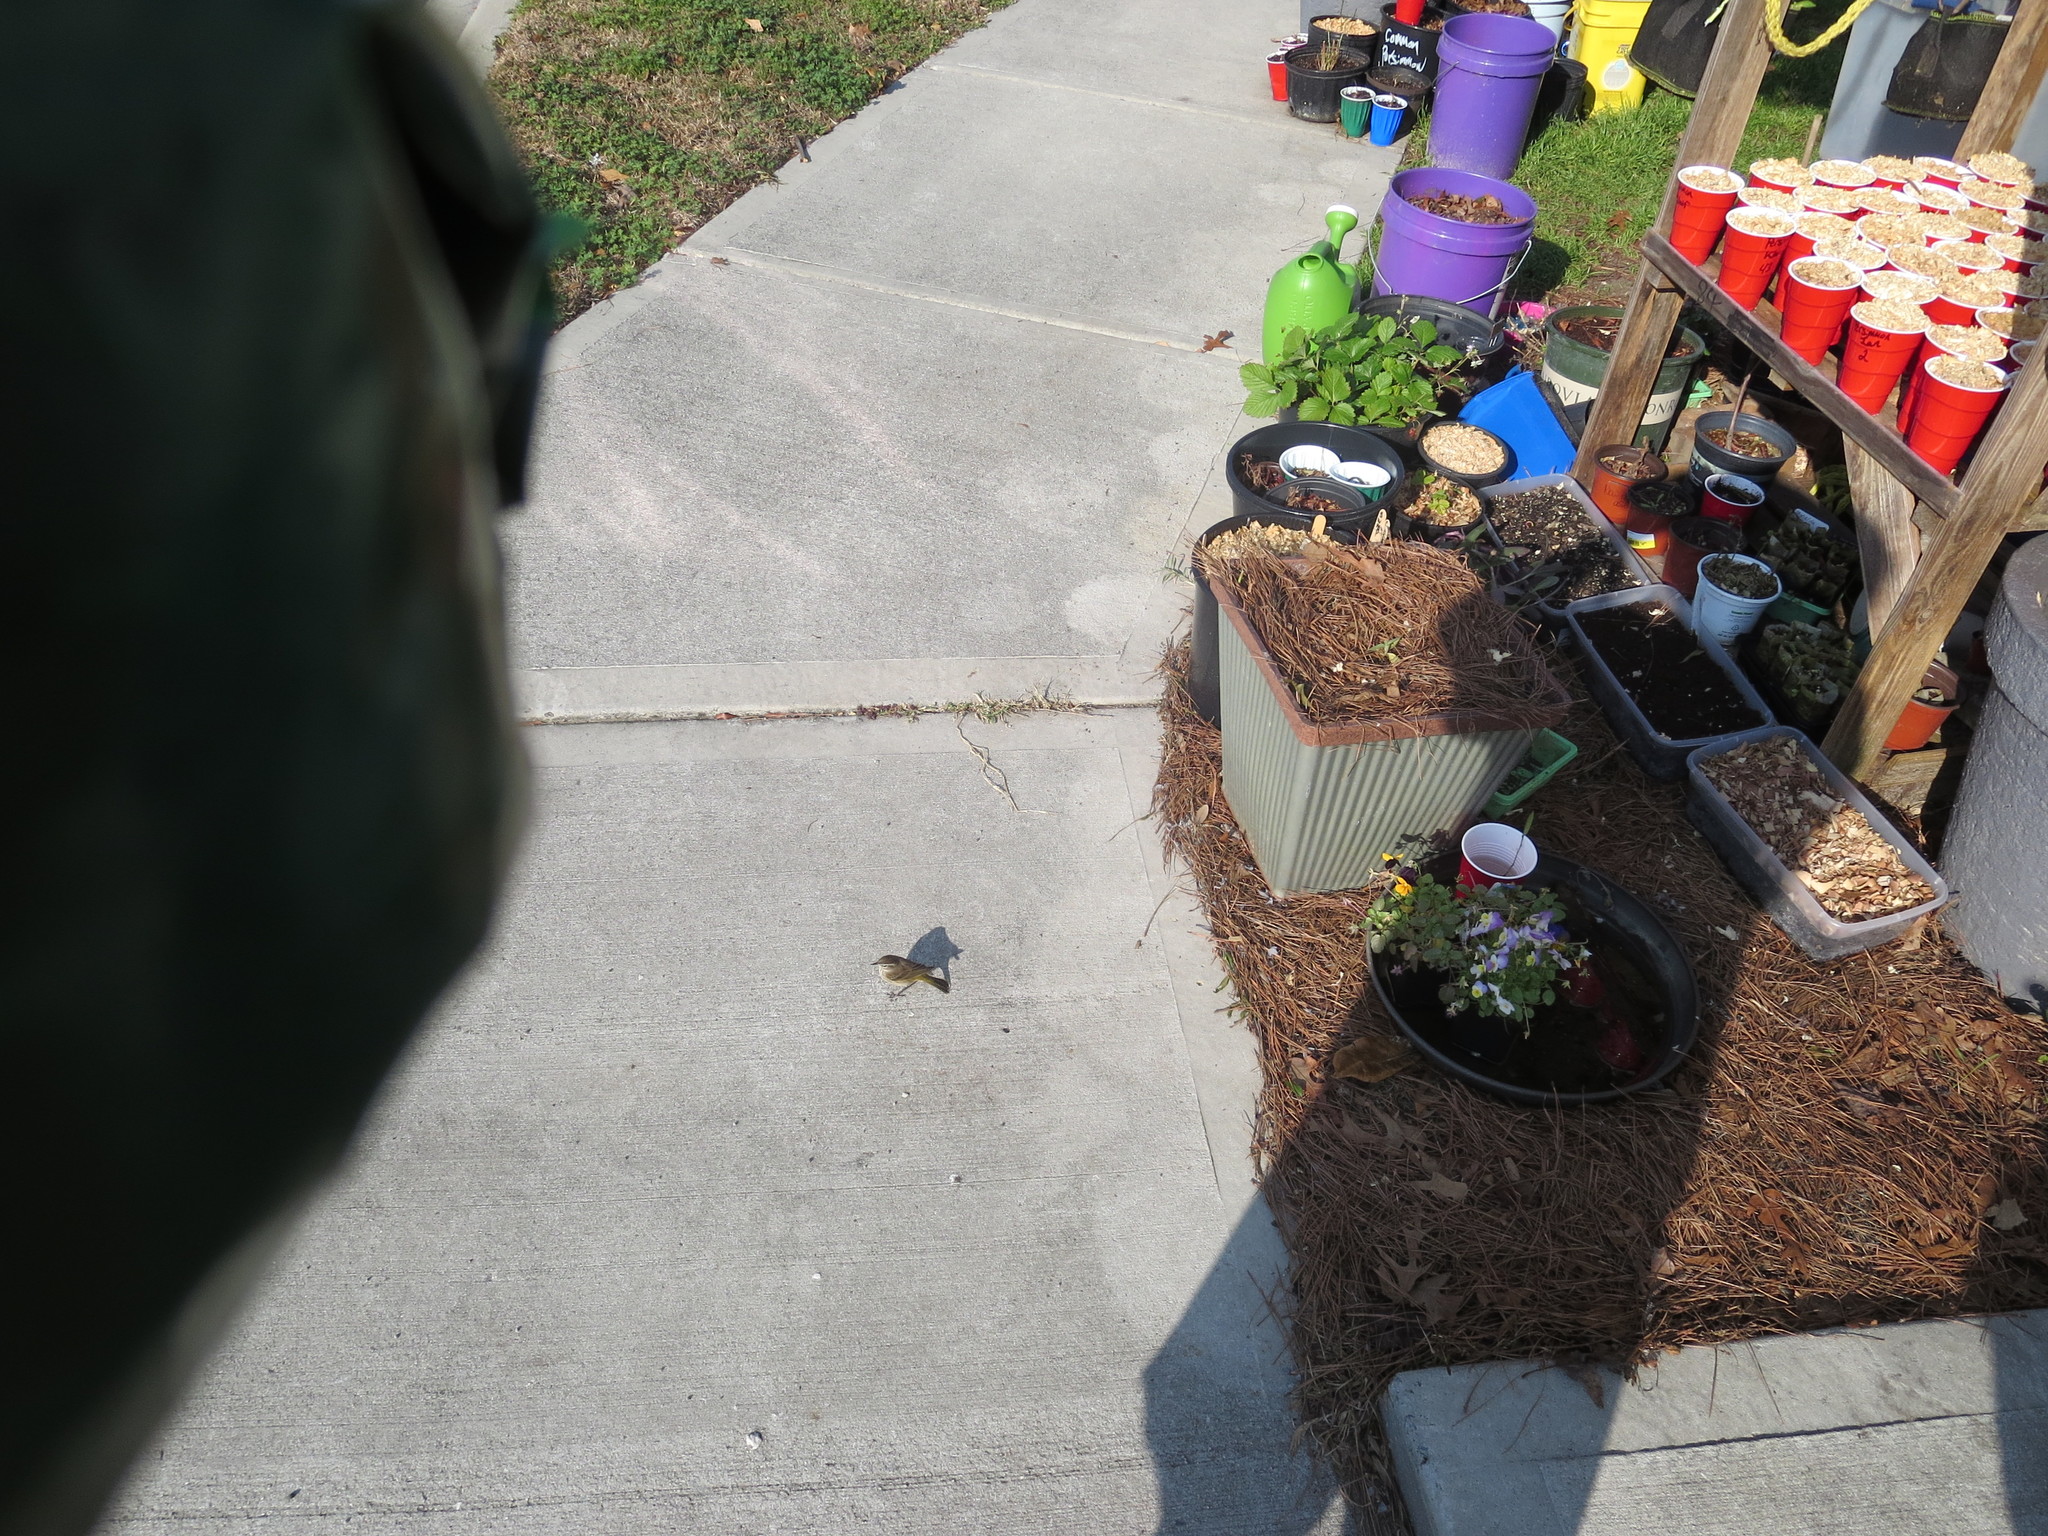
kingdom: Animalia
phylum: Chordata
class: Aves
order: Passeriformes
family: Parulidae
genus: Setophaga
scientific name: Setophaga palmarum
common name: Palm warbler
